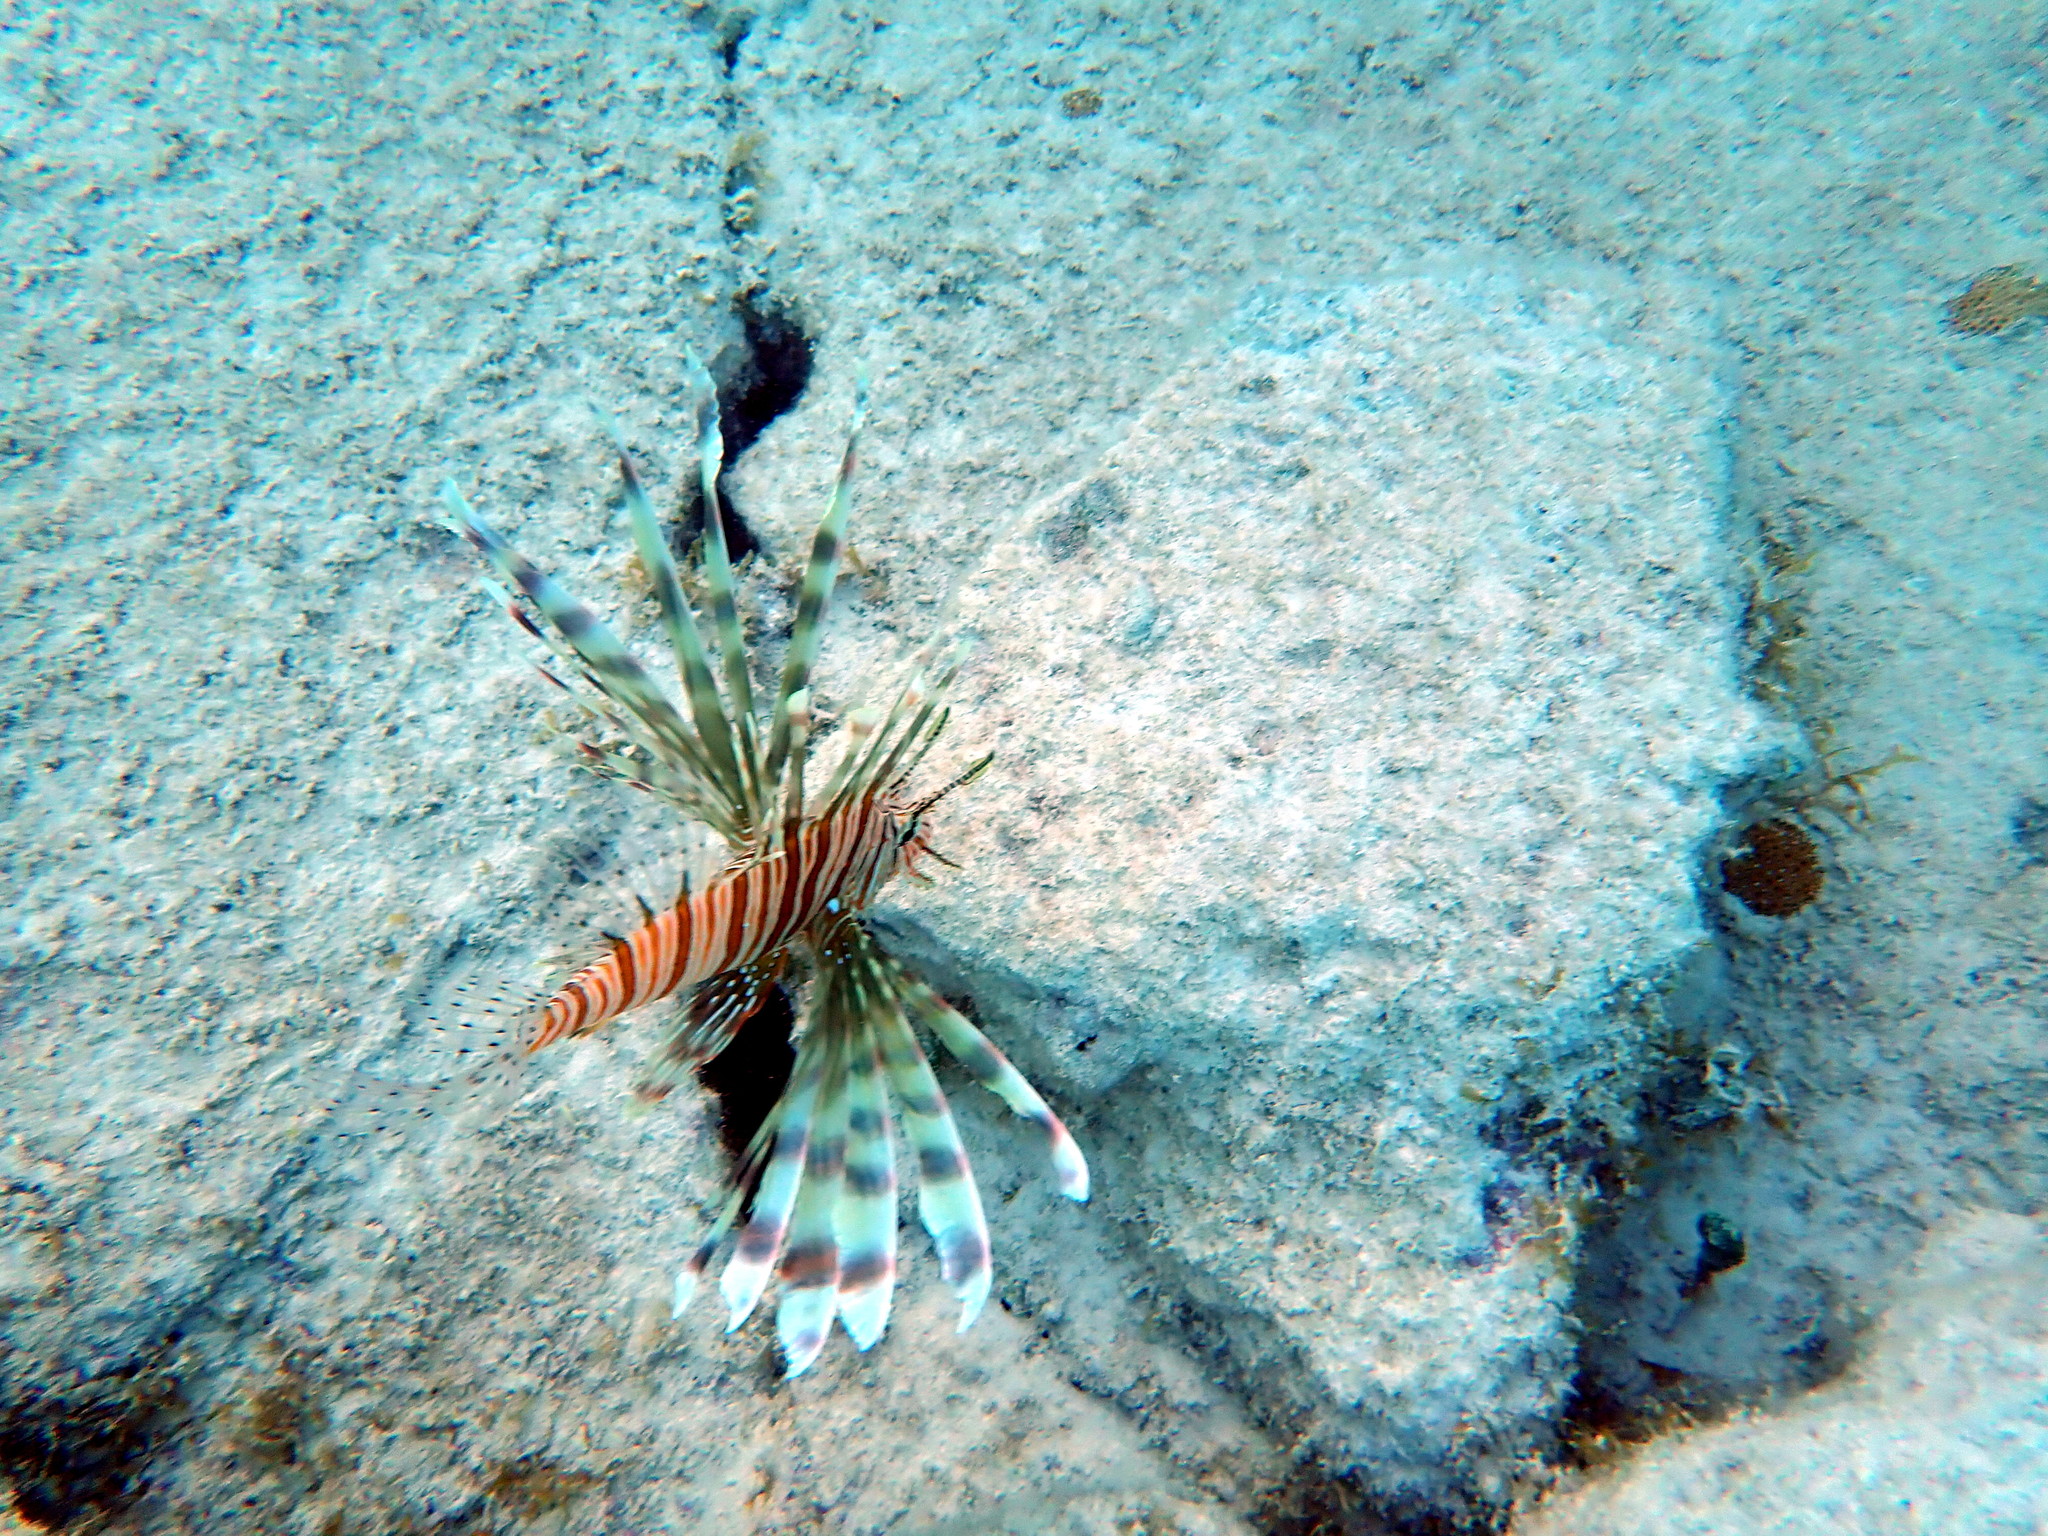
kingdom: Animalia
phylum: Chordata
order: Scorpaeniformes
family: Scorpaenidae
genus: Pterois
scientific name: Pterois volitans
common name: Lionfish
